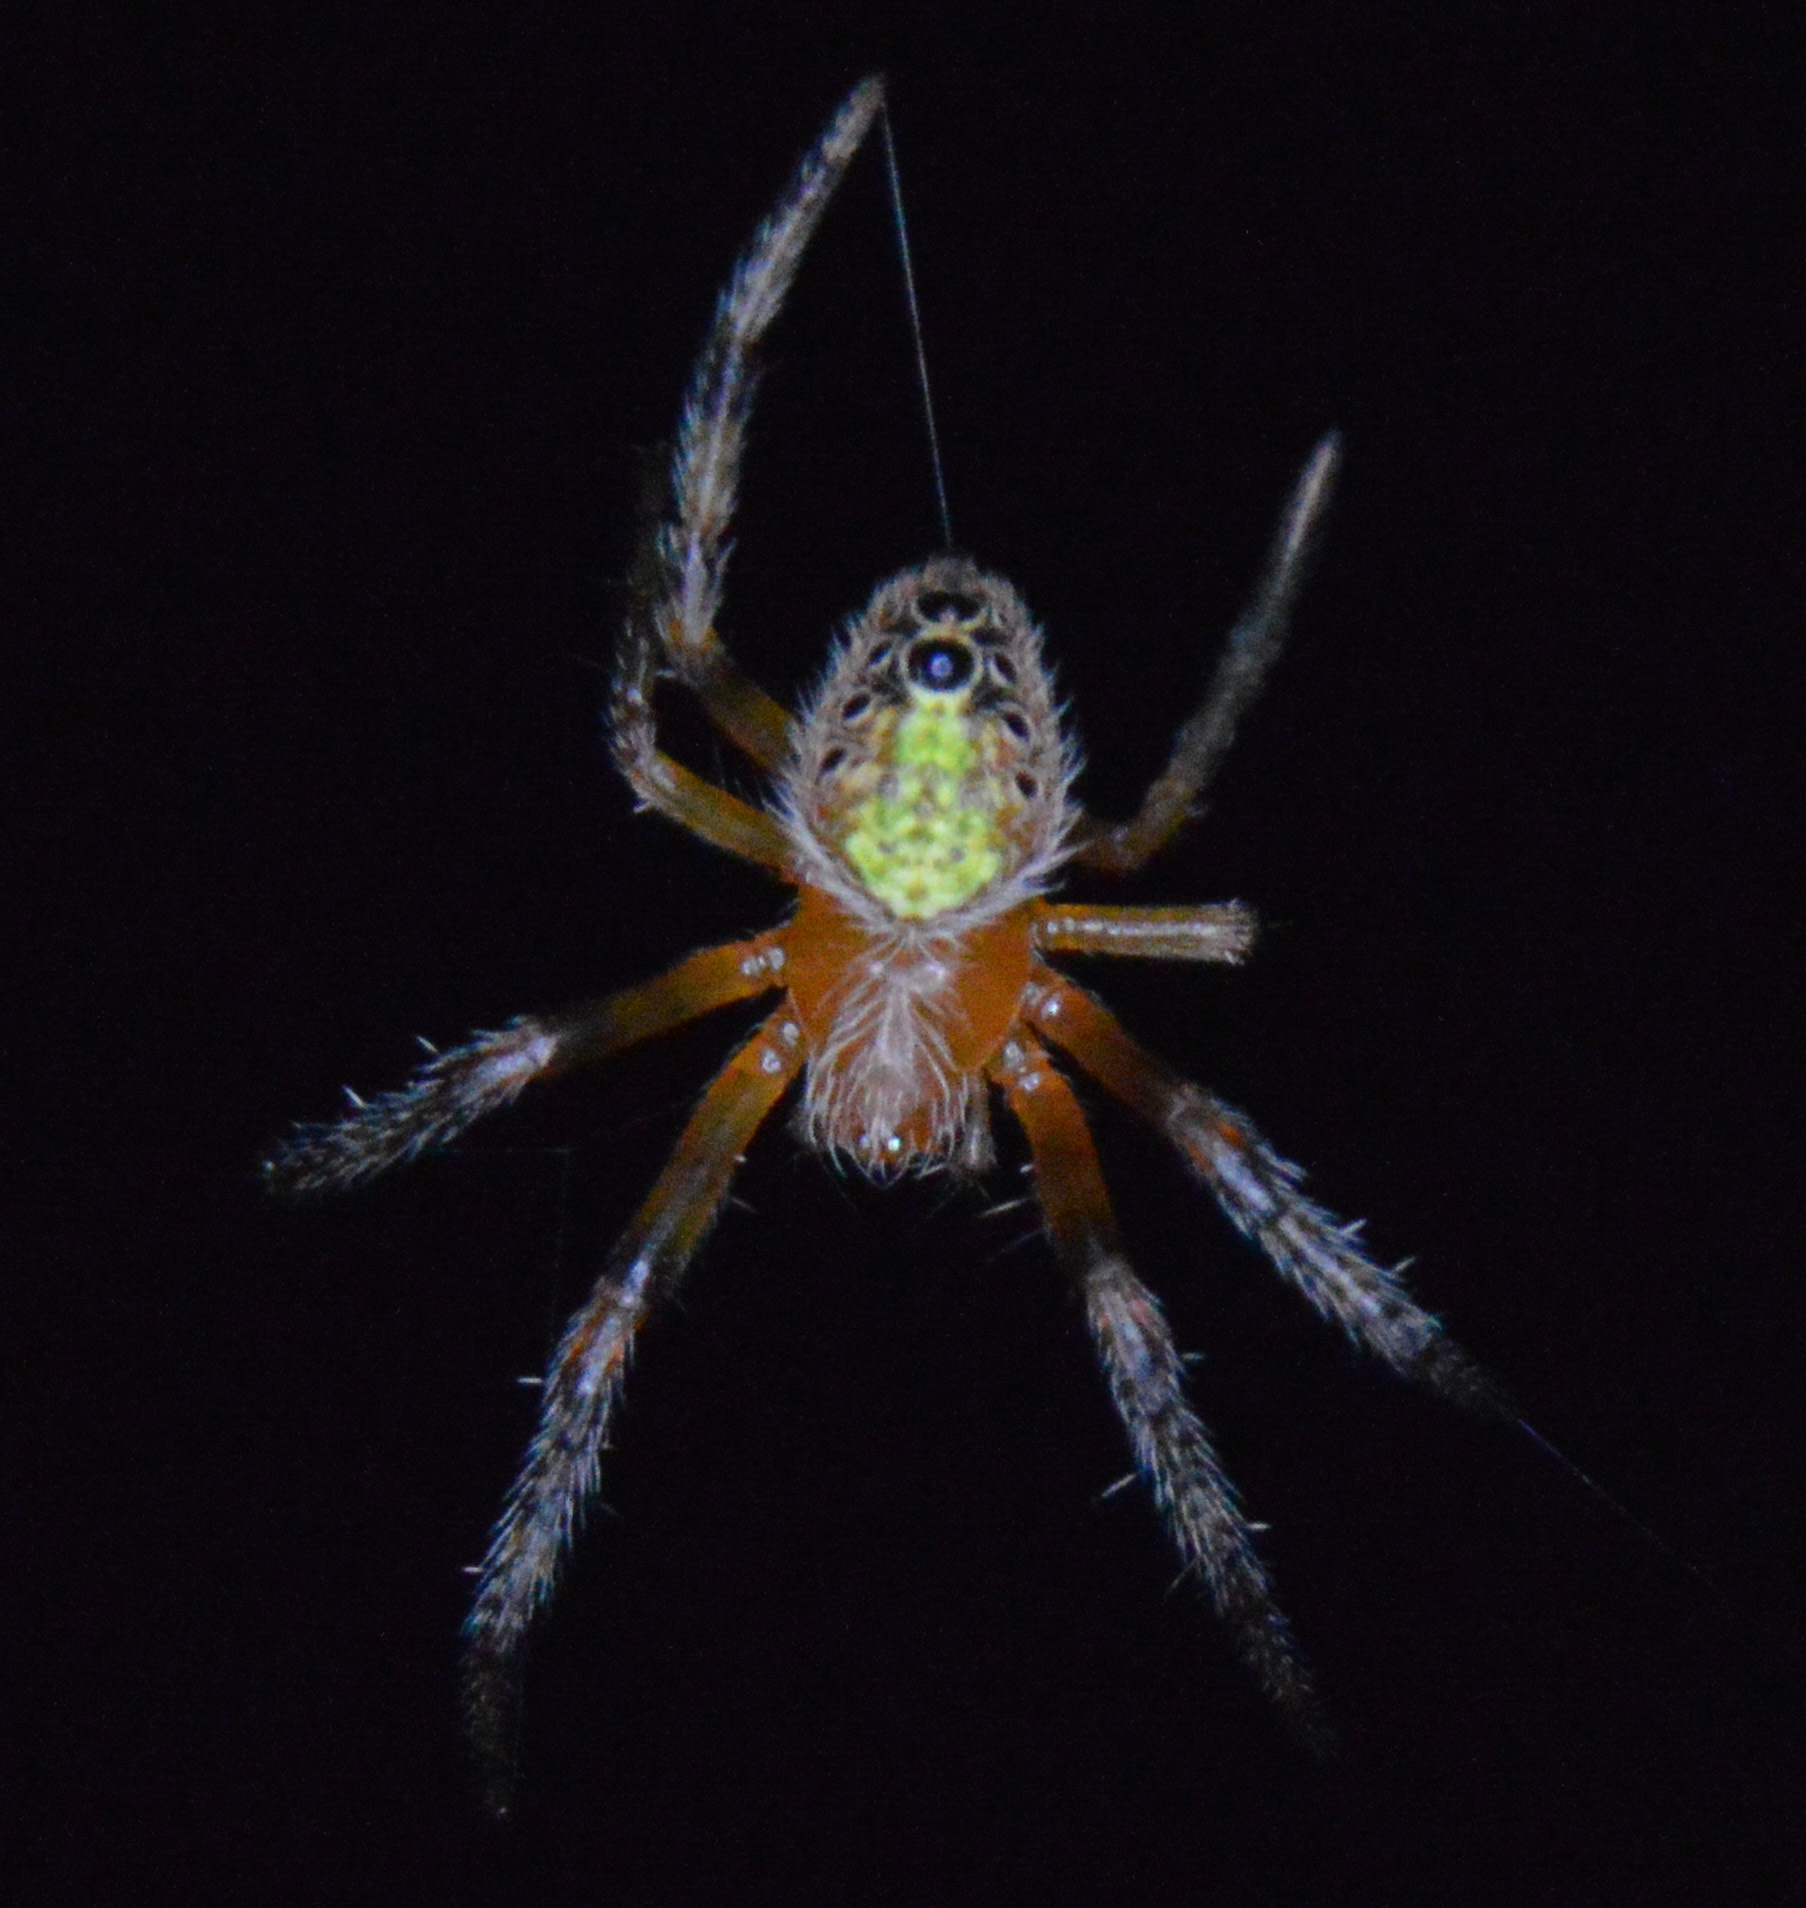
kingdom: Animalia
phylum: Arthropoda
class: Arachnida
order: Araneae
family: Araneidae
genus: Eriophora
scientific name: Eriophora ravilla
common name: Orb weavers
